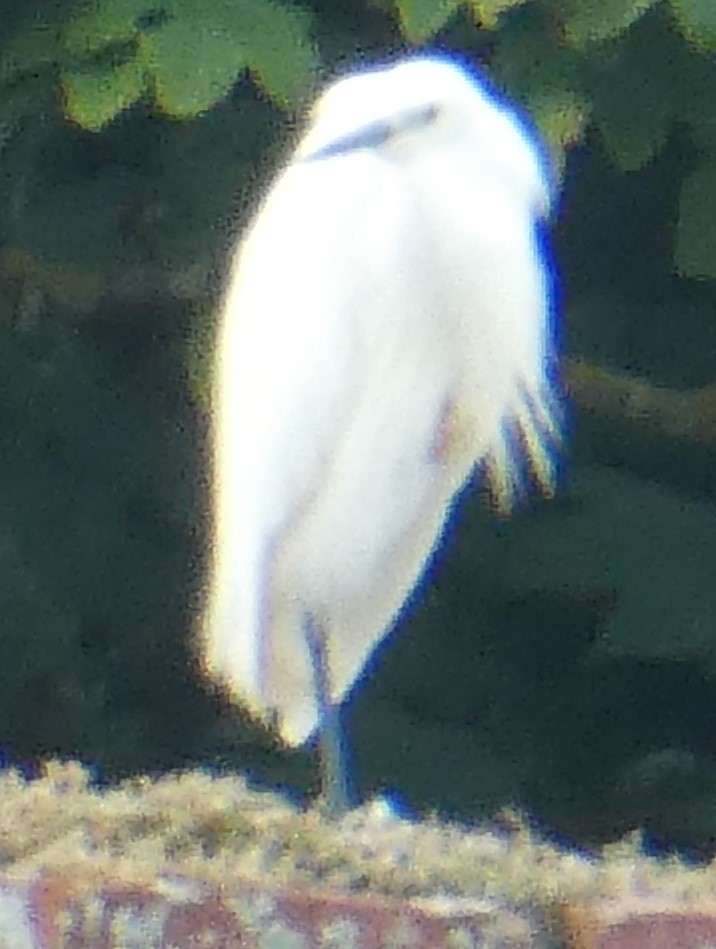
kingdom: Animalia
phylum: Chordata
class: Aves
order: Pelecaniformes
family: Ardeidae
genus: Egretta
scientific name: Egretta garzetta
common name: Little egret
